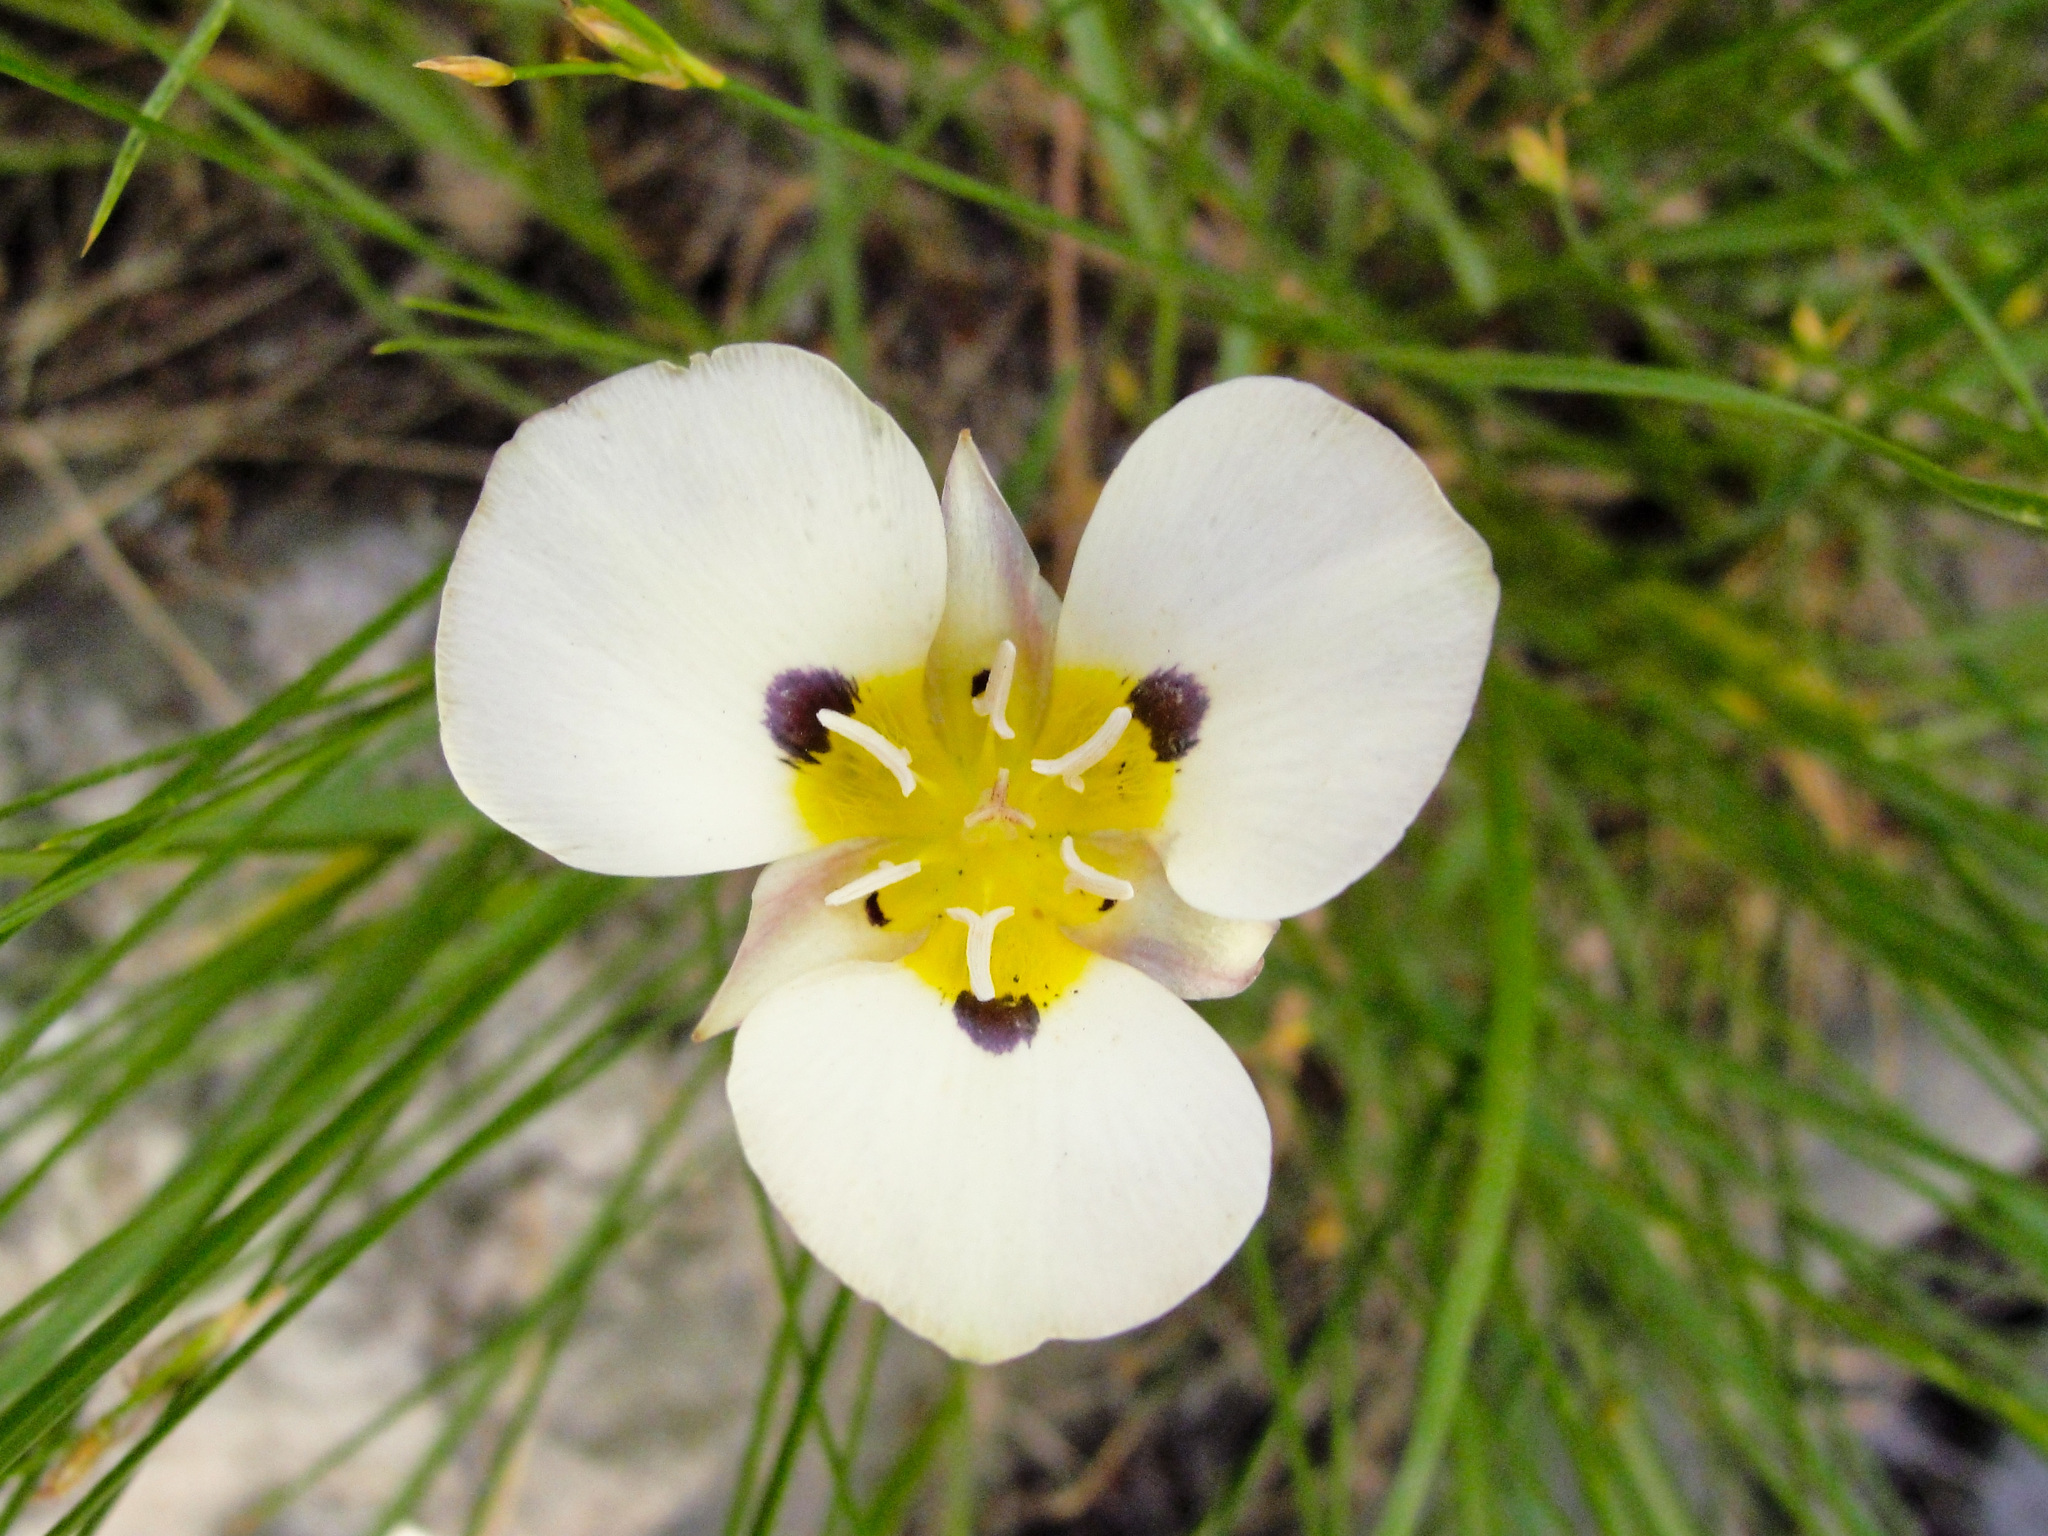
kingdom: Plantae
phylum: Tracheophyta
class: Liliopsida
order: Liliales
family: Liliaceae
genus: Calochortus
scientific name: Calochortus leichtlinii
